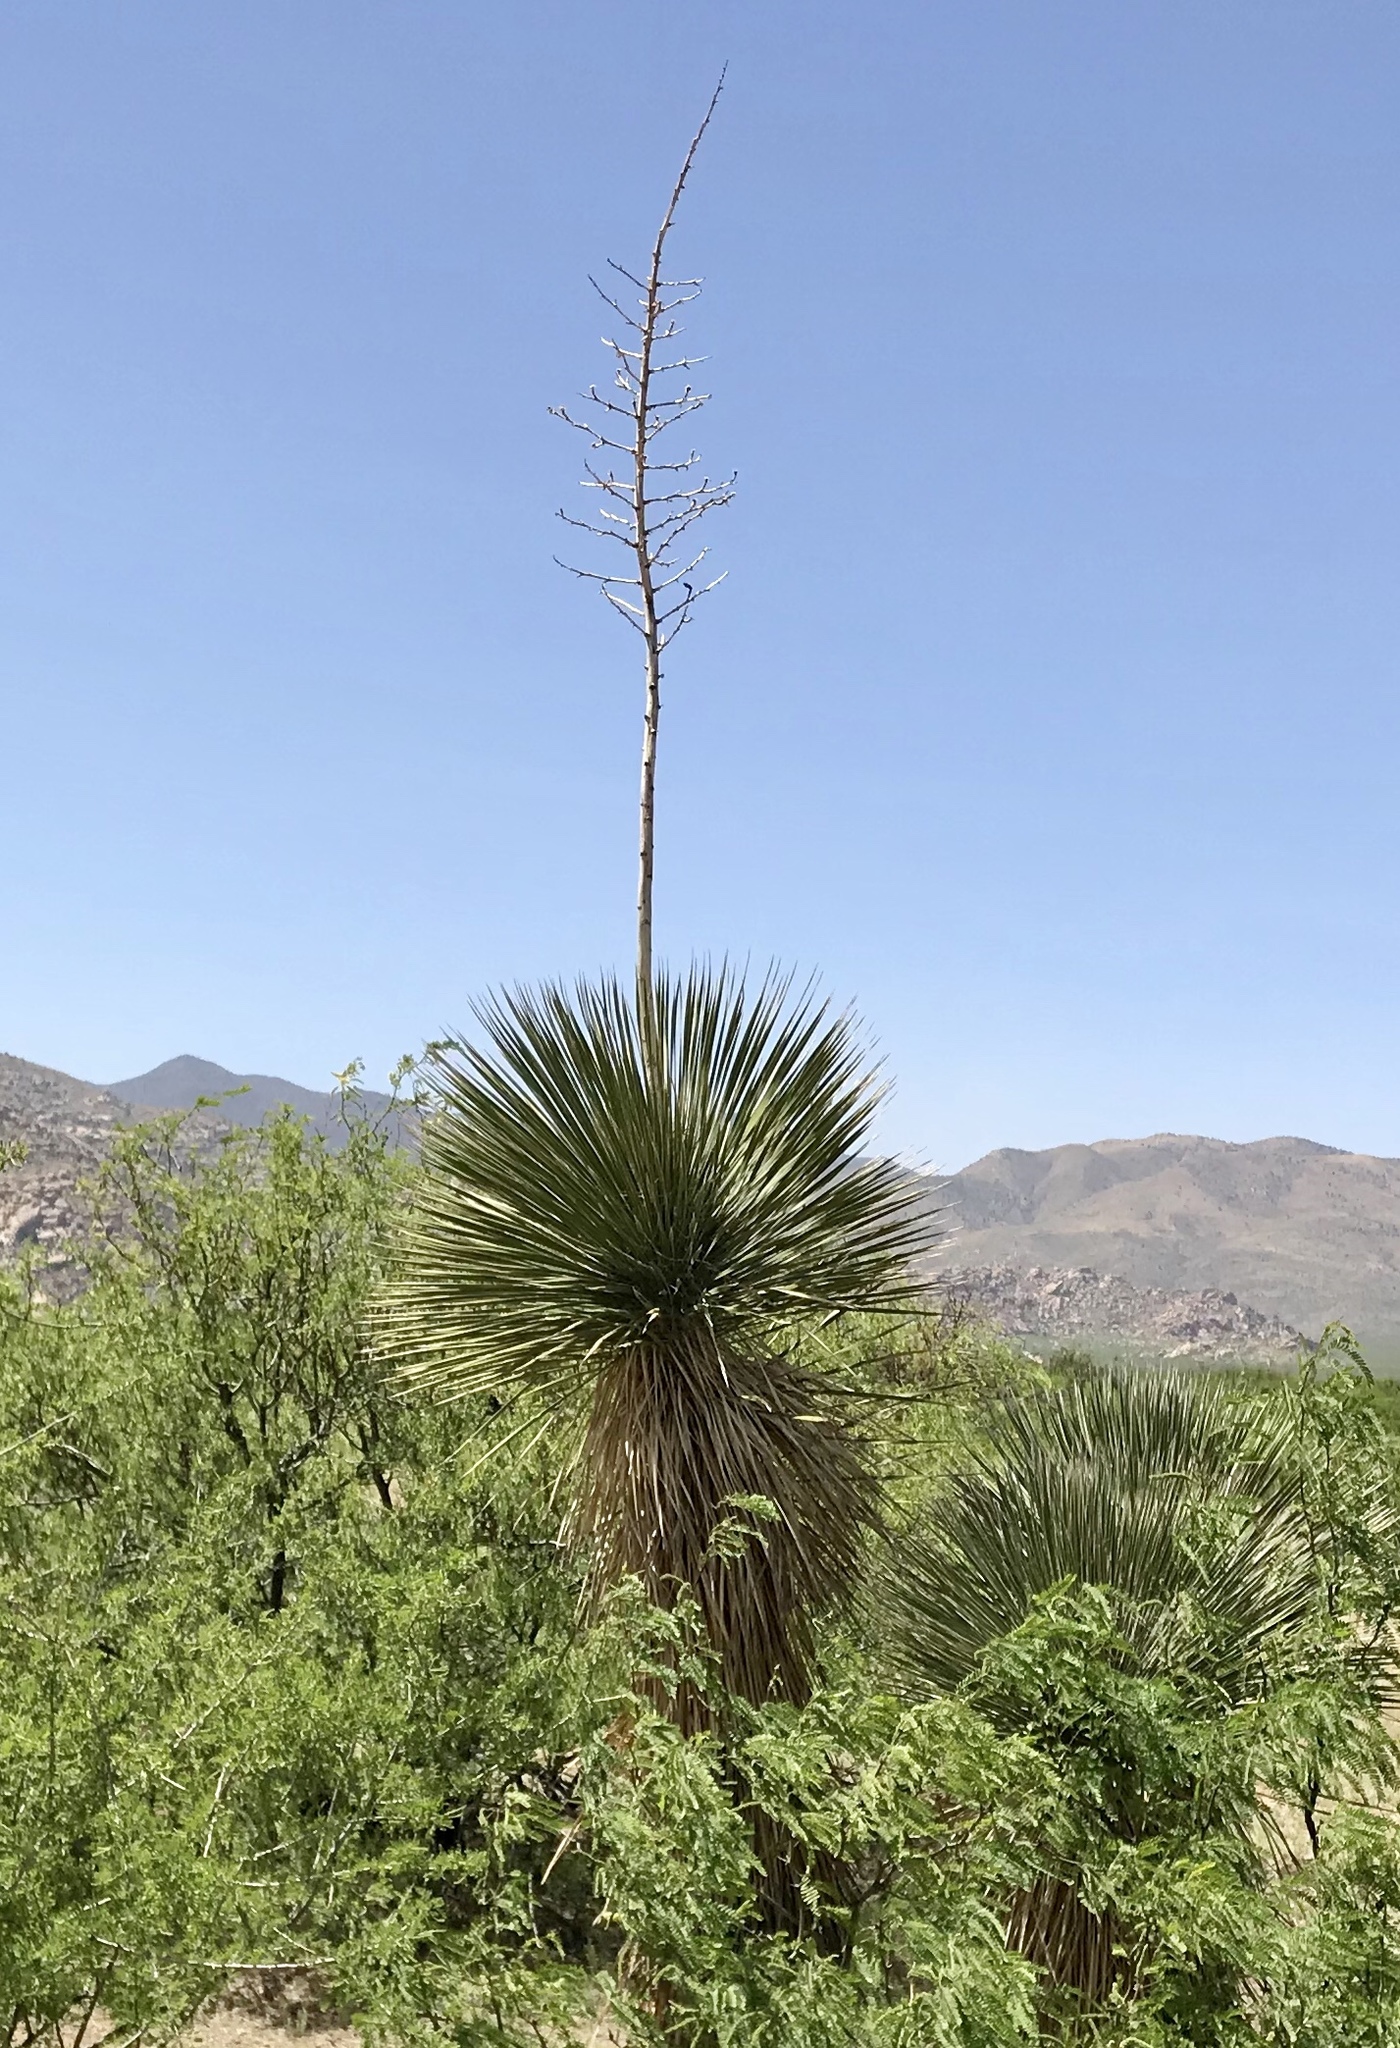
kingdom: Plantae
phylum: Tracheophyta
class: Liliopsida
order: Asparagales
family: Asparagaceae
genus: Yucca
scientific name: Yucca elata
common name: Palmella
